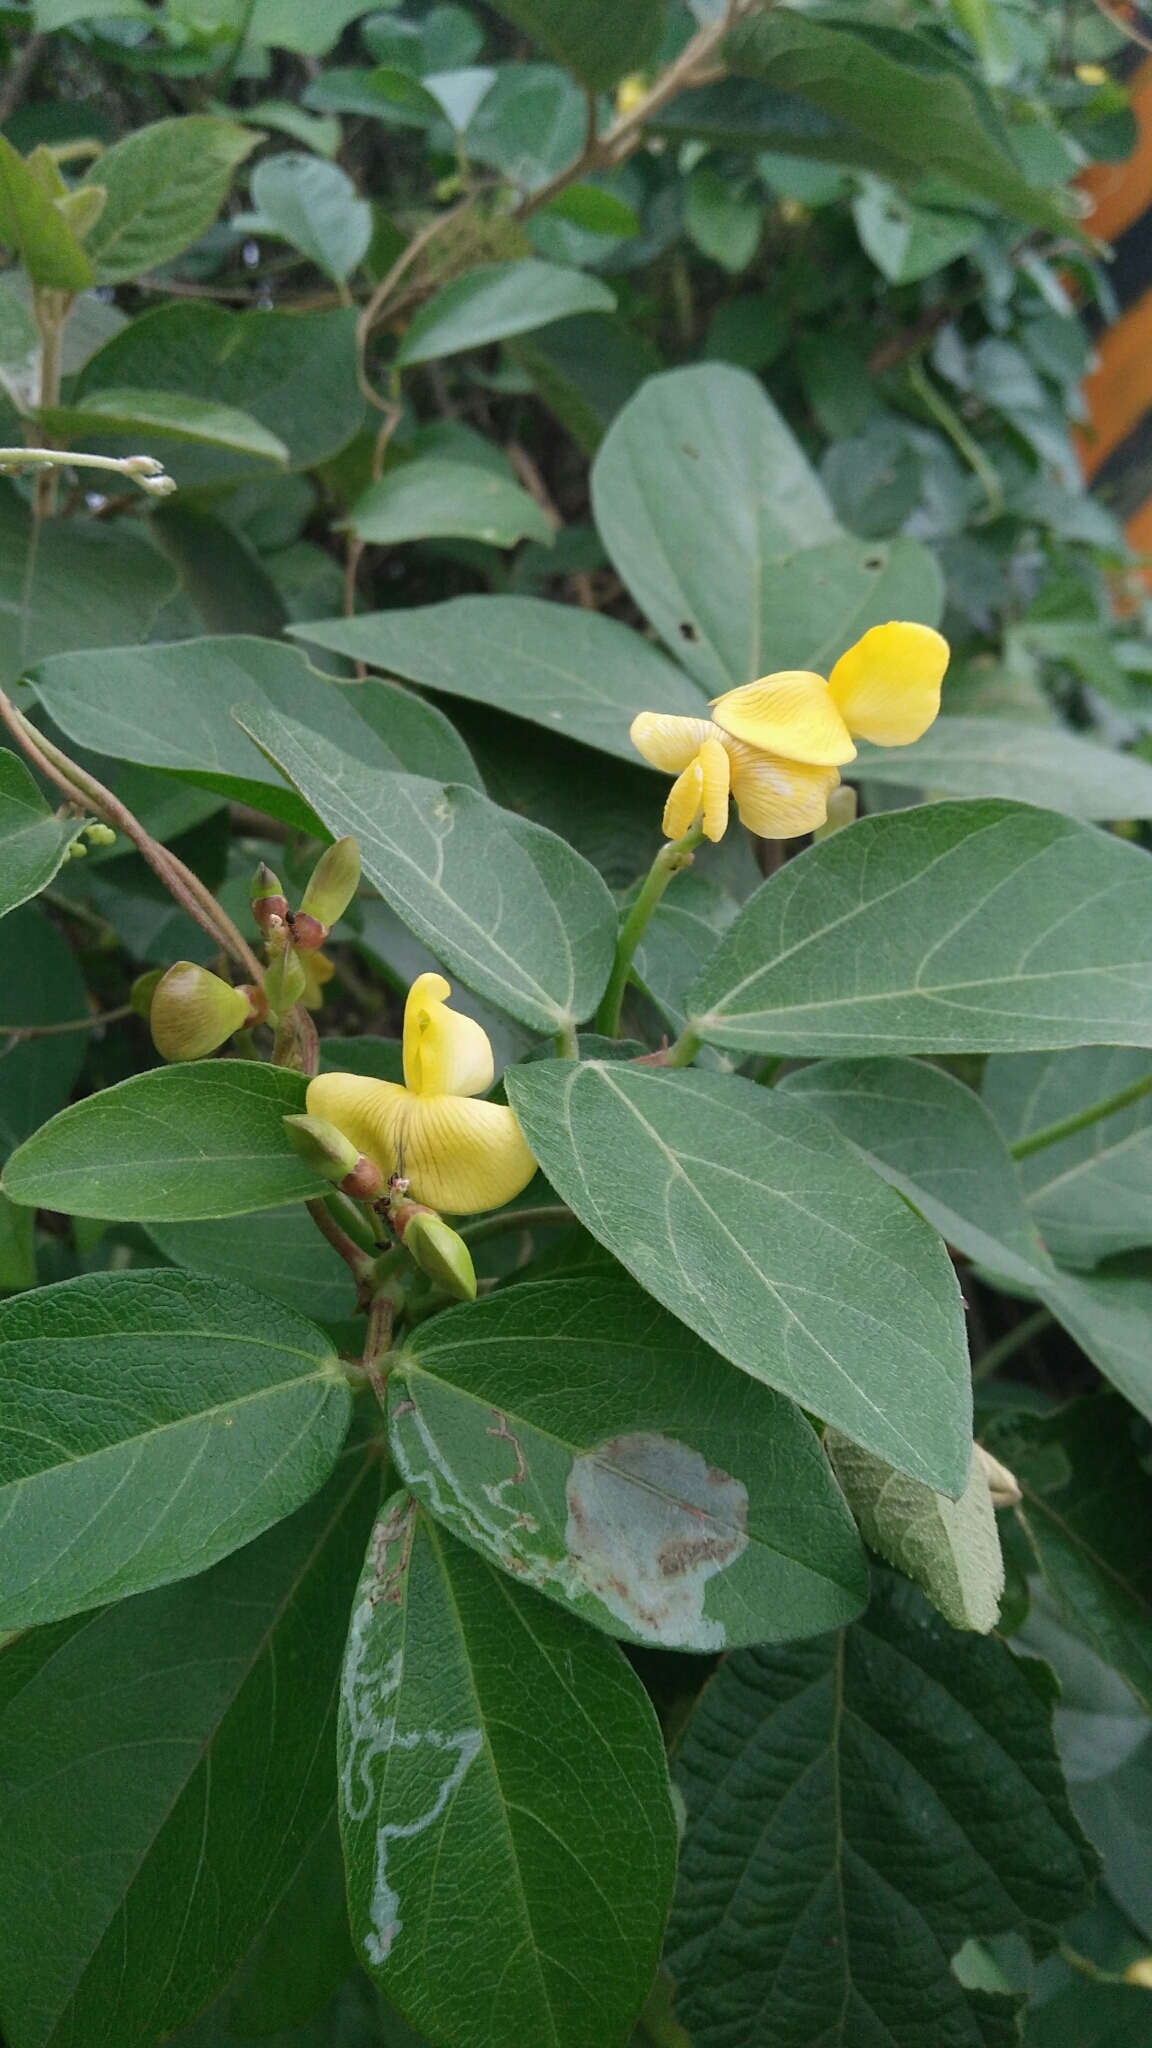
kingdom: Plantae
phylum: Tracheophyta
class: Magnoliopsida
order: Fabales
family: Fabaceae
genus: Vigna
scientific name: Vigna marina
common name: Dune-bean
